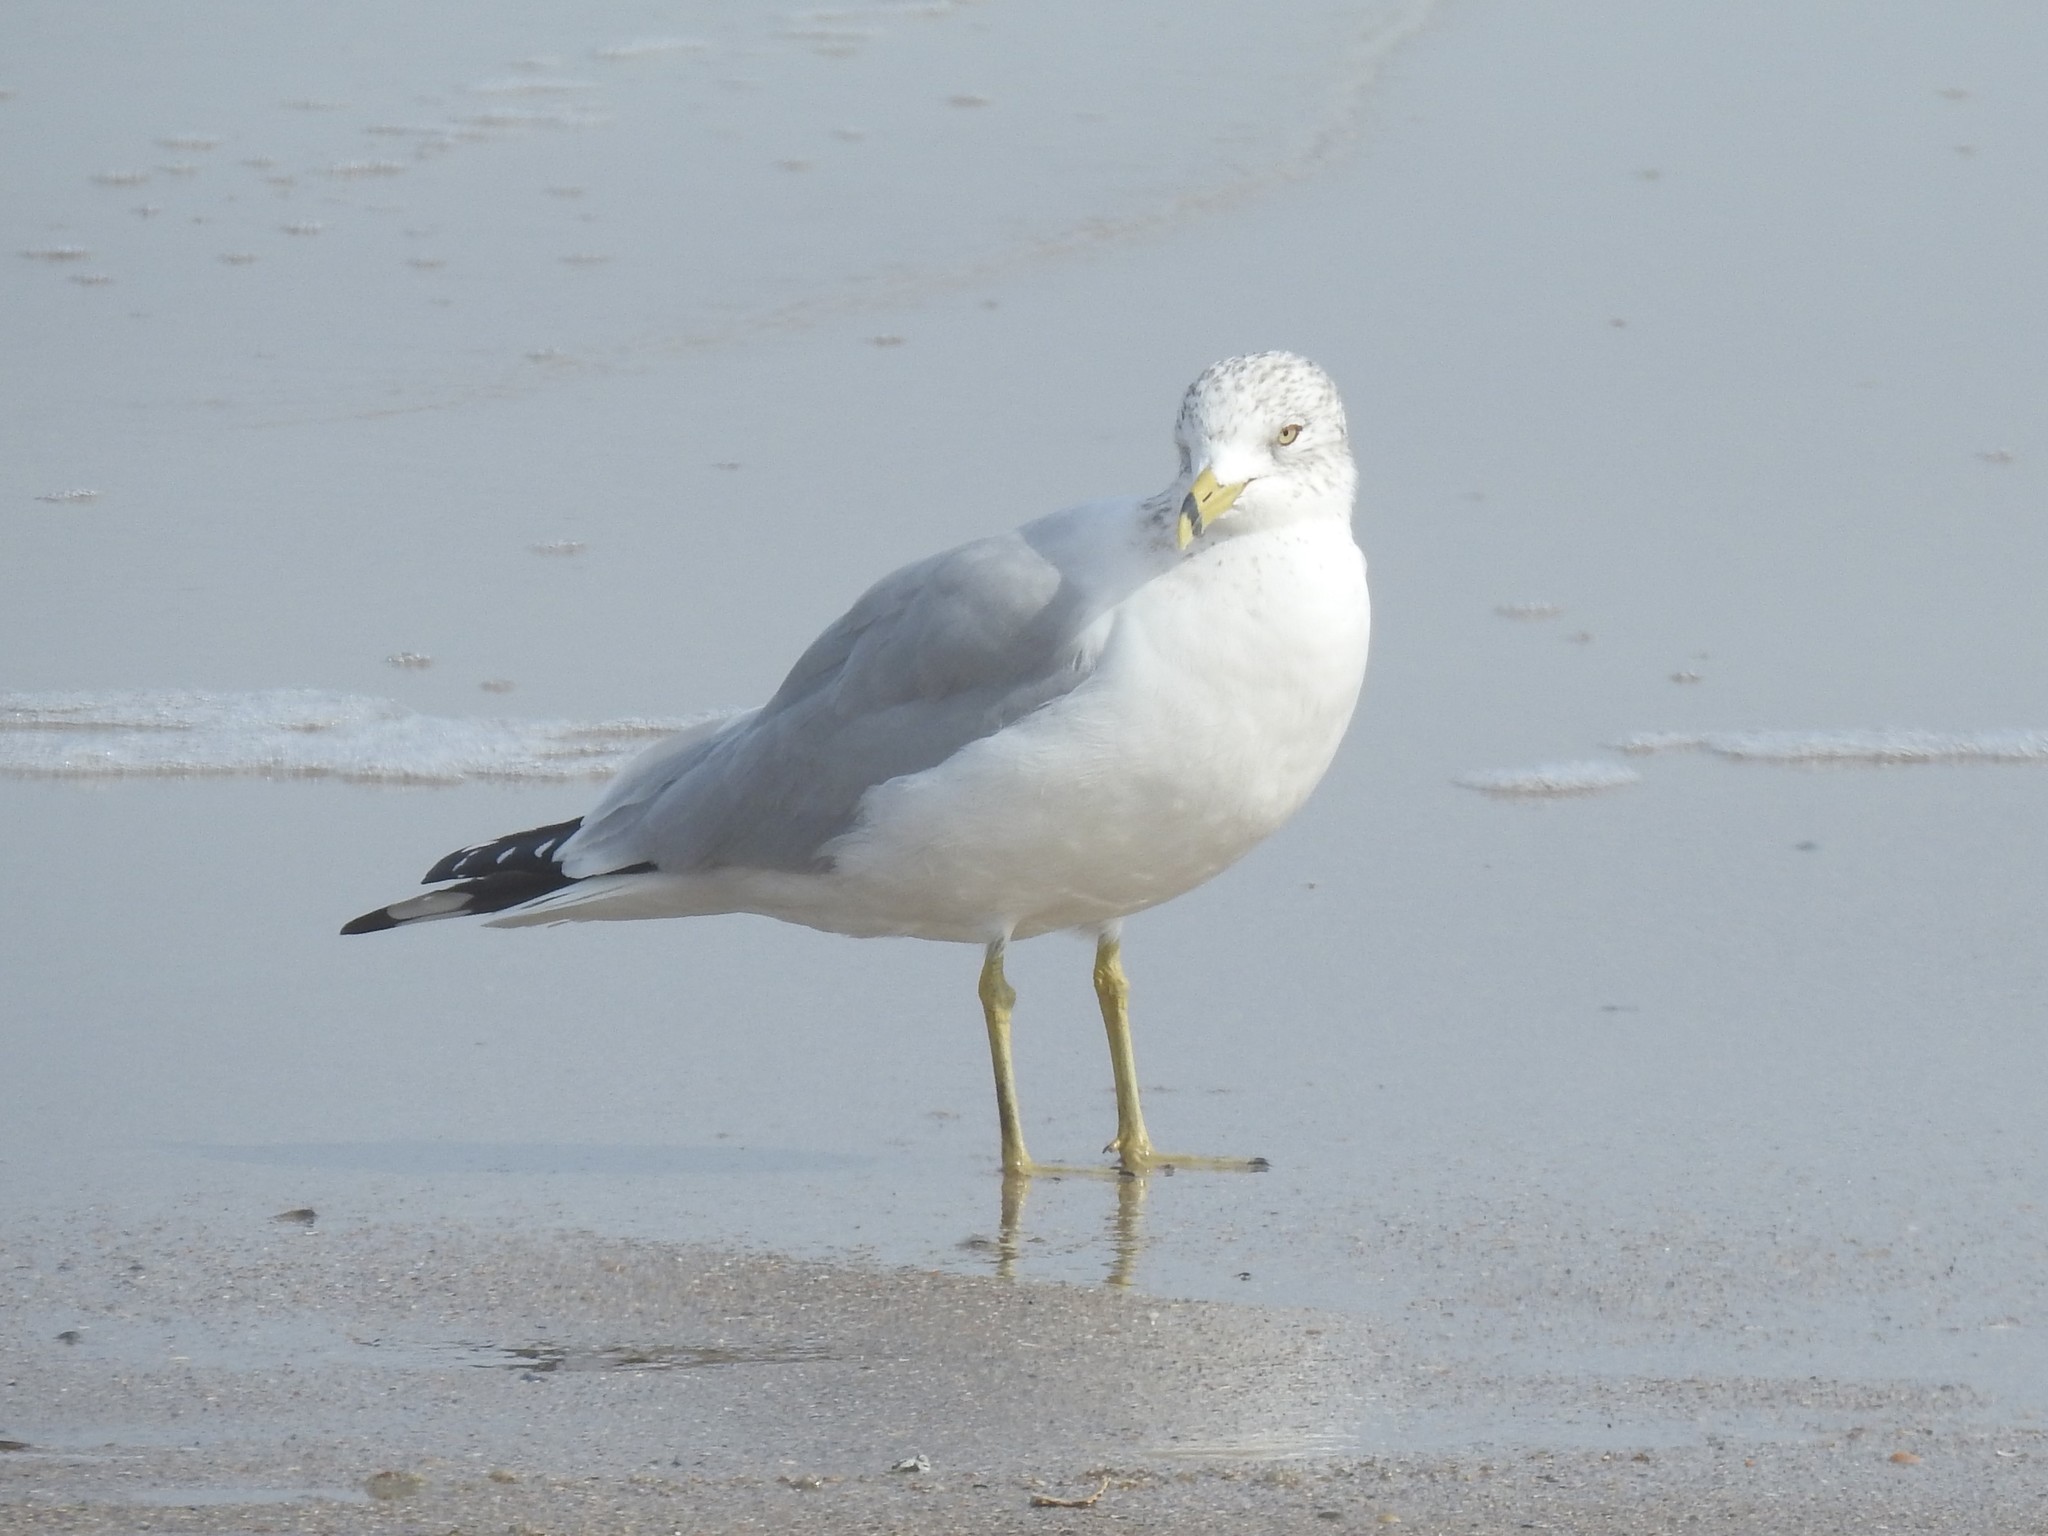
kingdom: Animalia
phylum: Chordata
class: Aves
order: Charadriiformes
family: Laridae
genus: Larus
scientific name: Larus delawarensis
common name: Ring-billed gull
